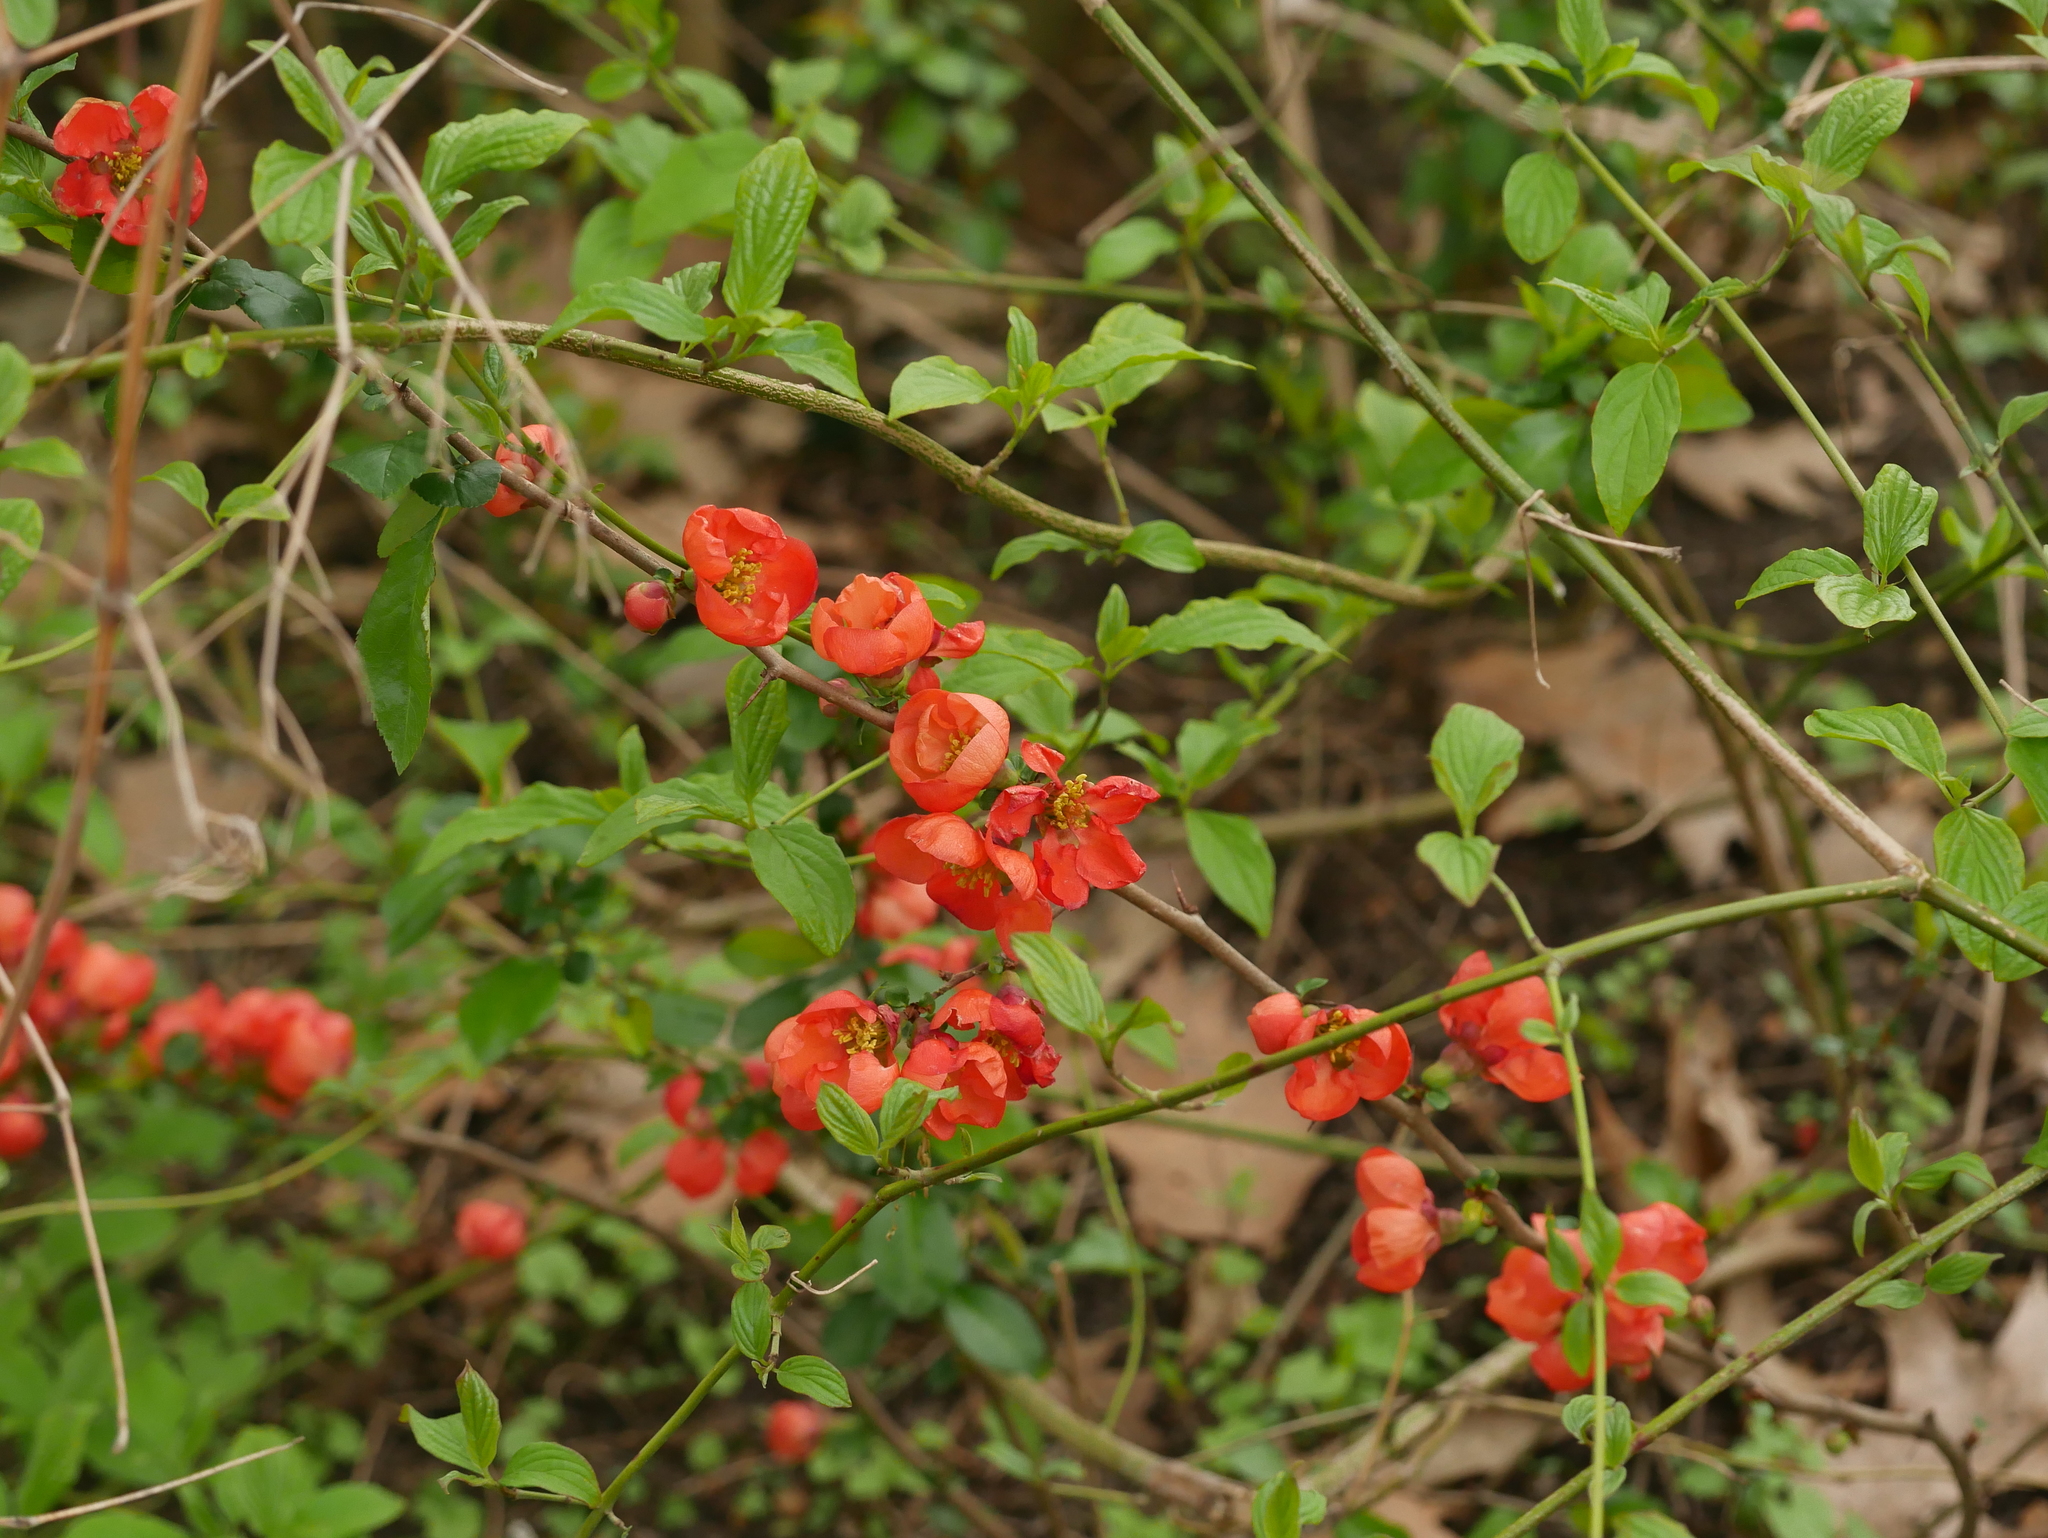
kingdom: Plantae
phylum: Tracheophyta
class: Magnoliopsida
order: Rosales
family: Rosaceae
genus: Chaenomeles
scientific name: Chaenomeles japonica
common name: Japanese quince
